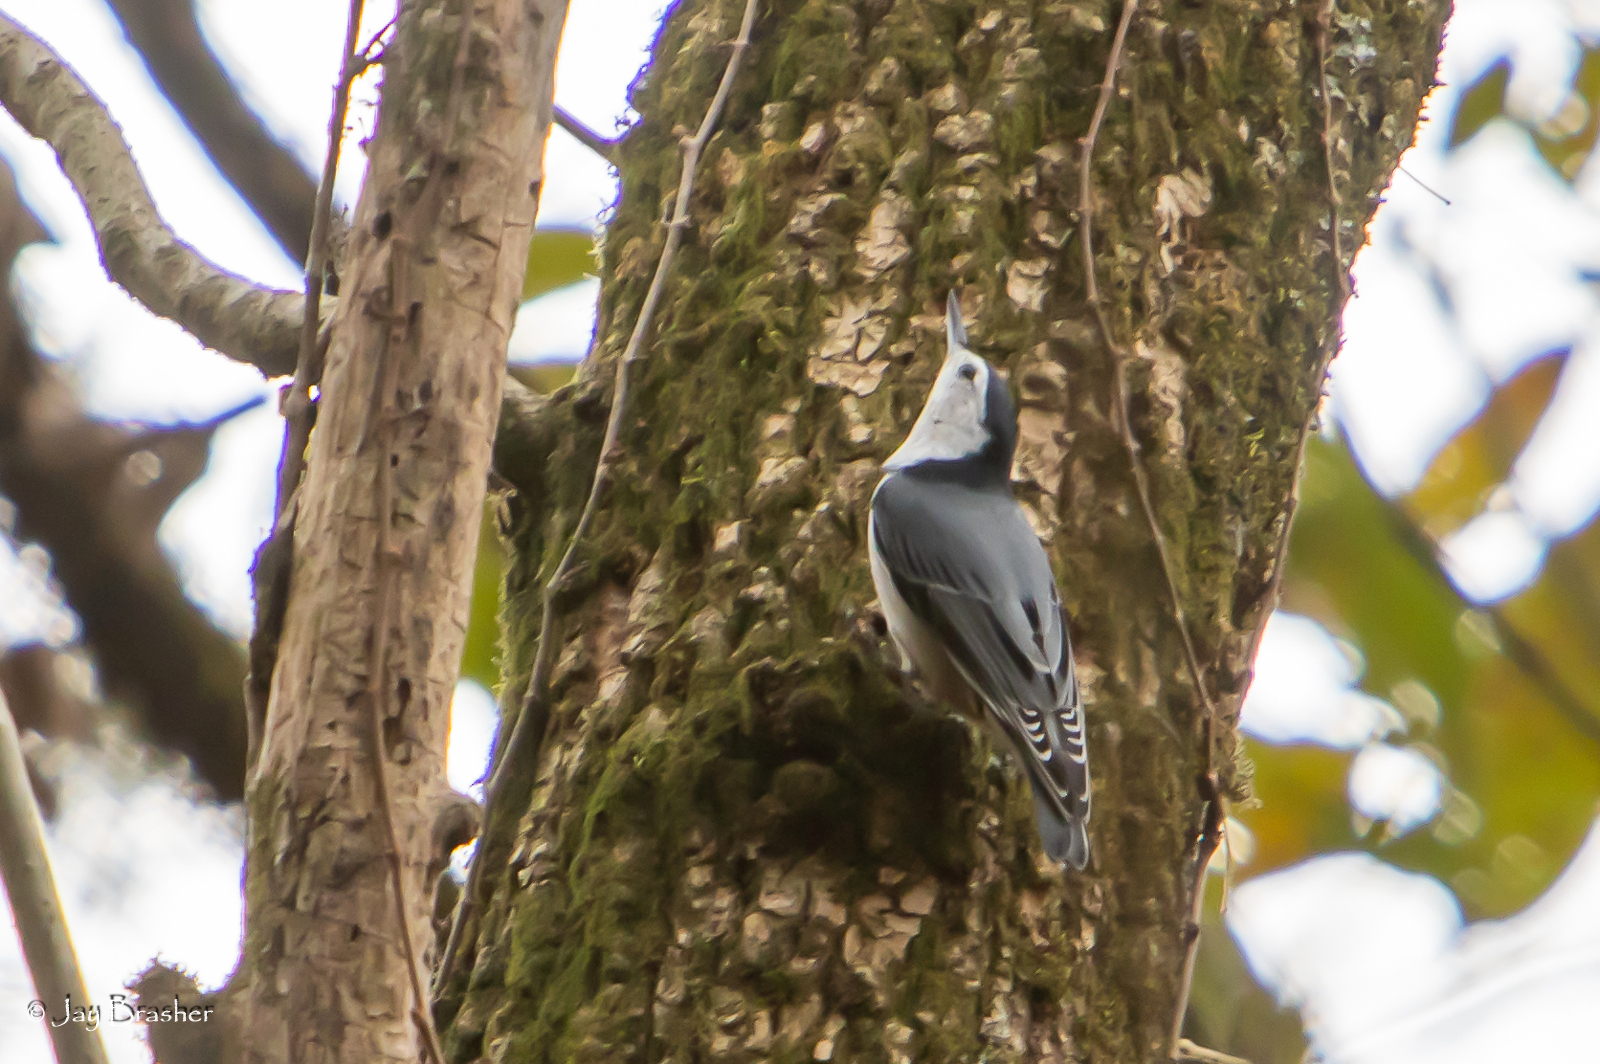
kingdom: Animalia
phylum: Chordata
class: Aves
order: Passeriformes
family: Sittidae
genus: Sitta
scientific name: Sitta carolinensis
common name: White-breasted nuthatch
